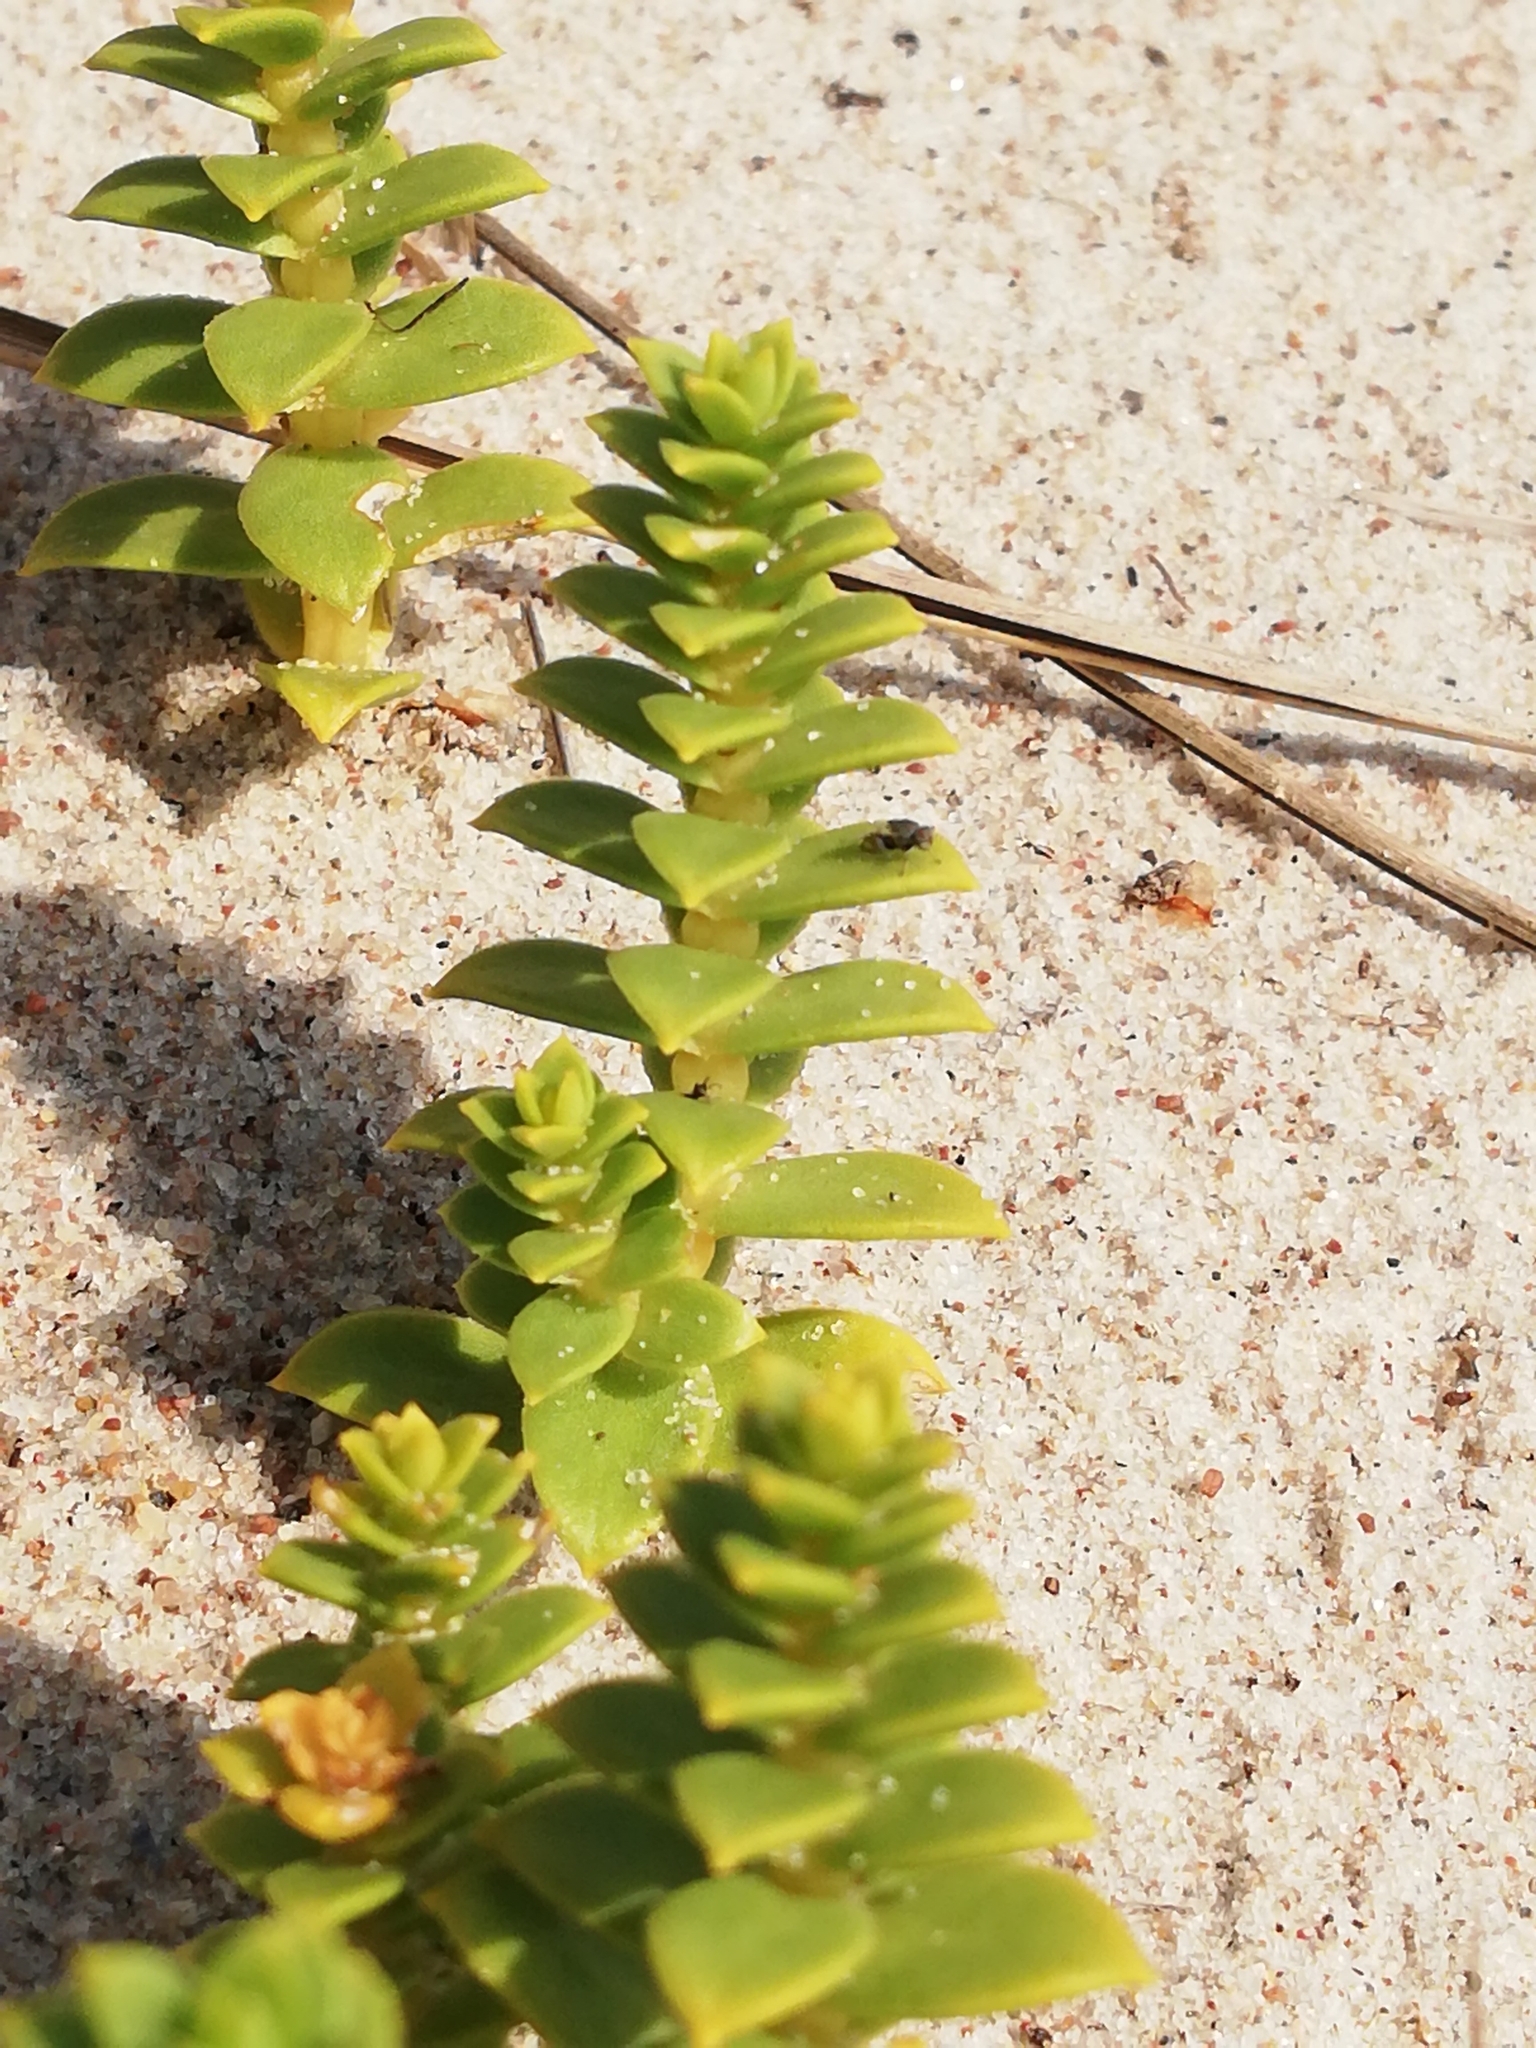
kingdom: Plantae
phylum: Tracheophyta
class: Magnoliopsida
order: Caryophyllales
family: Caryophyllaceae
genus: Honckenya
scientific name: Honckenya peploides
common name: Sea sandwort
